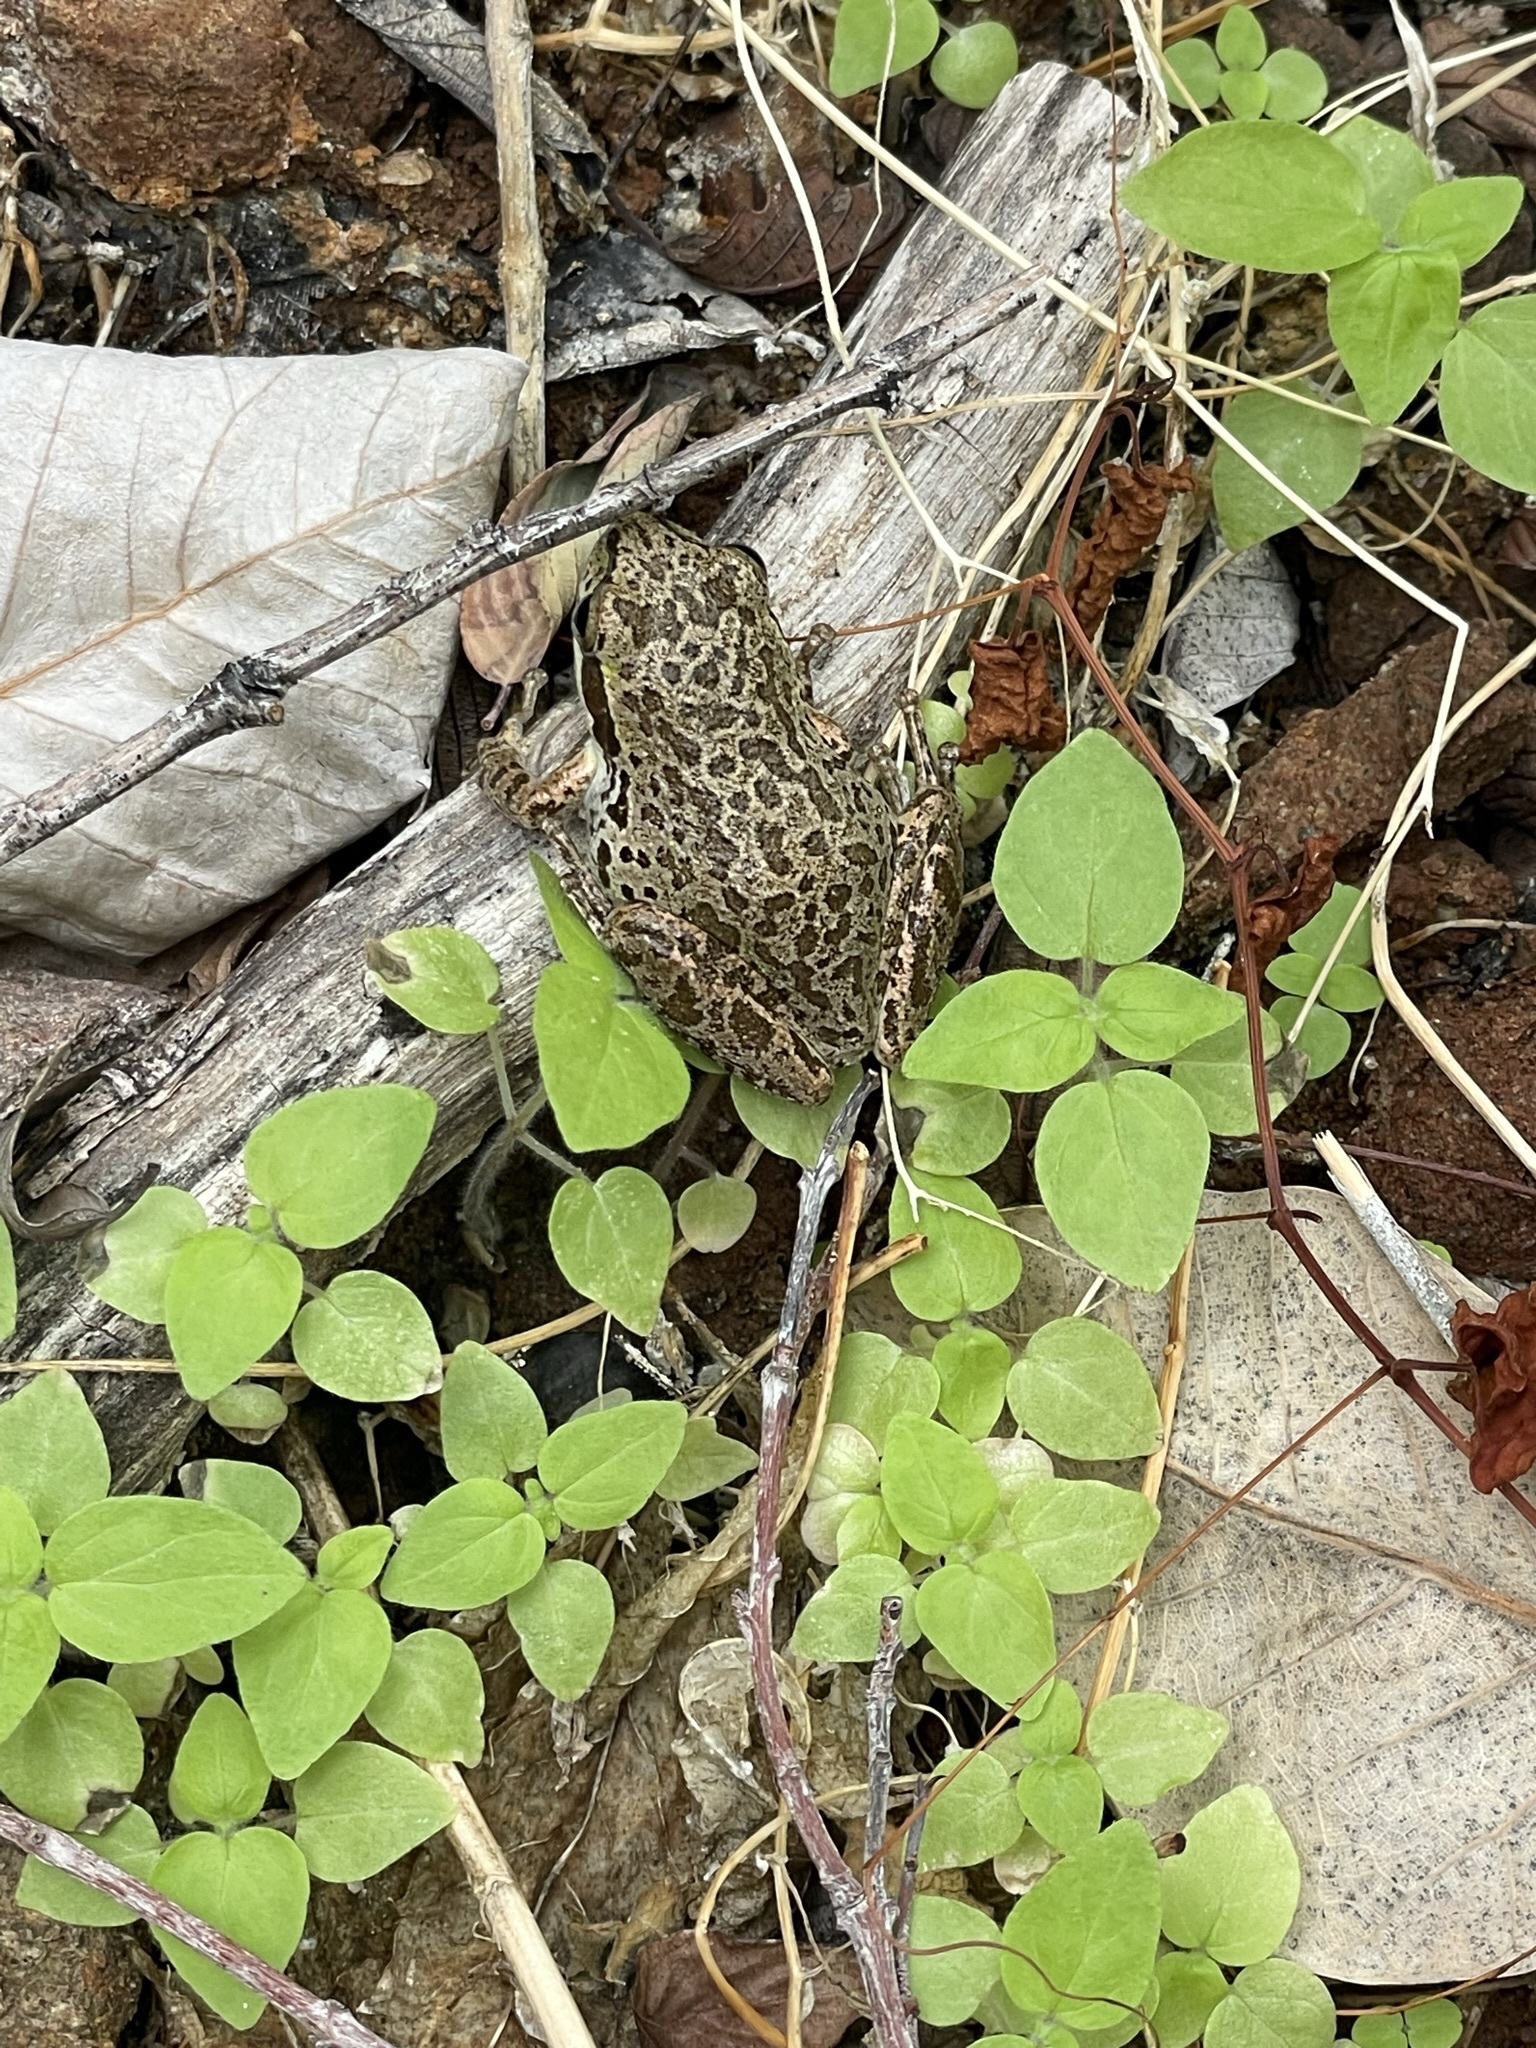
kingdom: Animalia
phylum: Chordata
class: Amphibia
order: Anura
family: Hylidae
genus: Pseudacris
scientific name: Pseudacris regilla
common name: Pacific chorus frog
